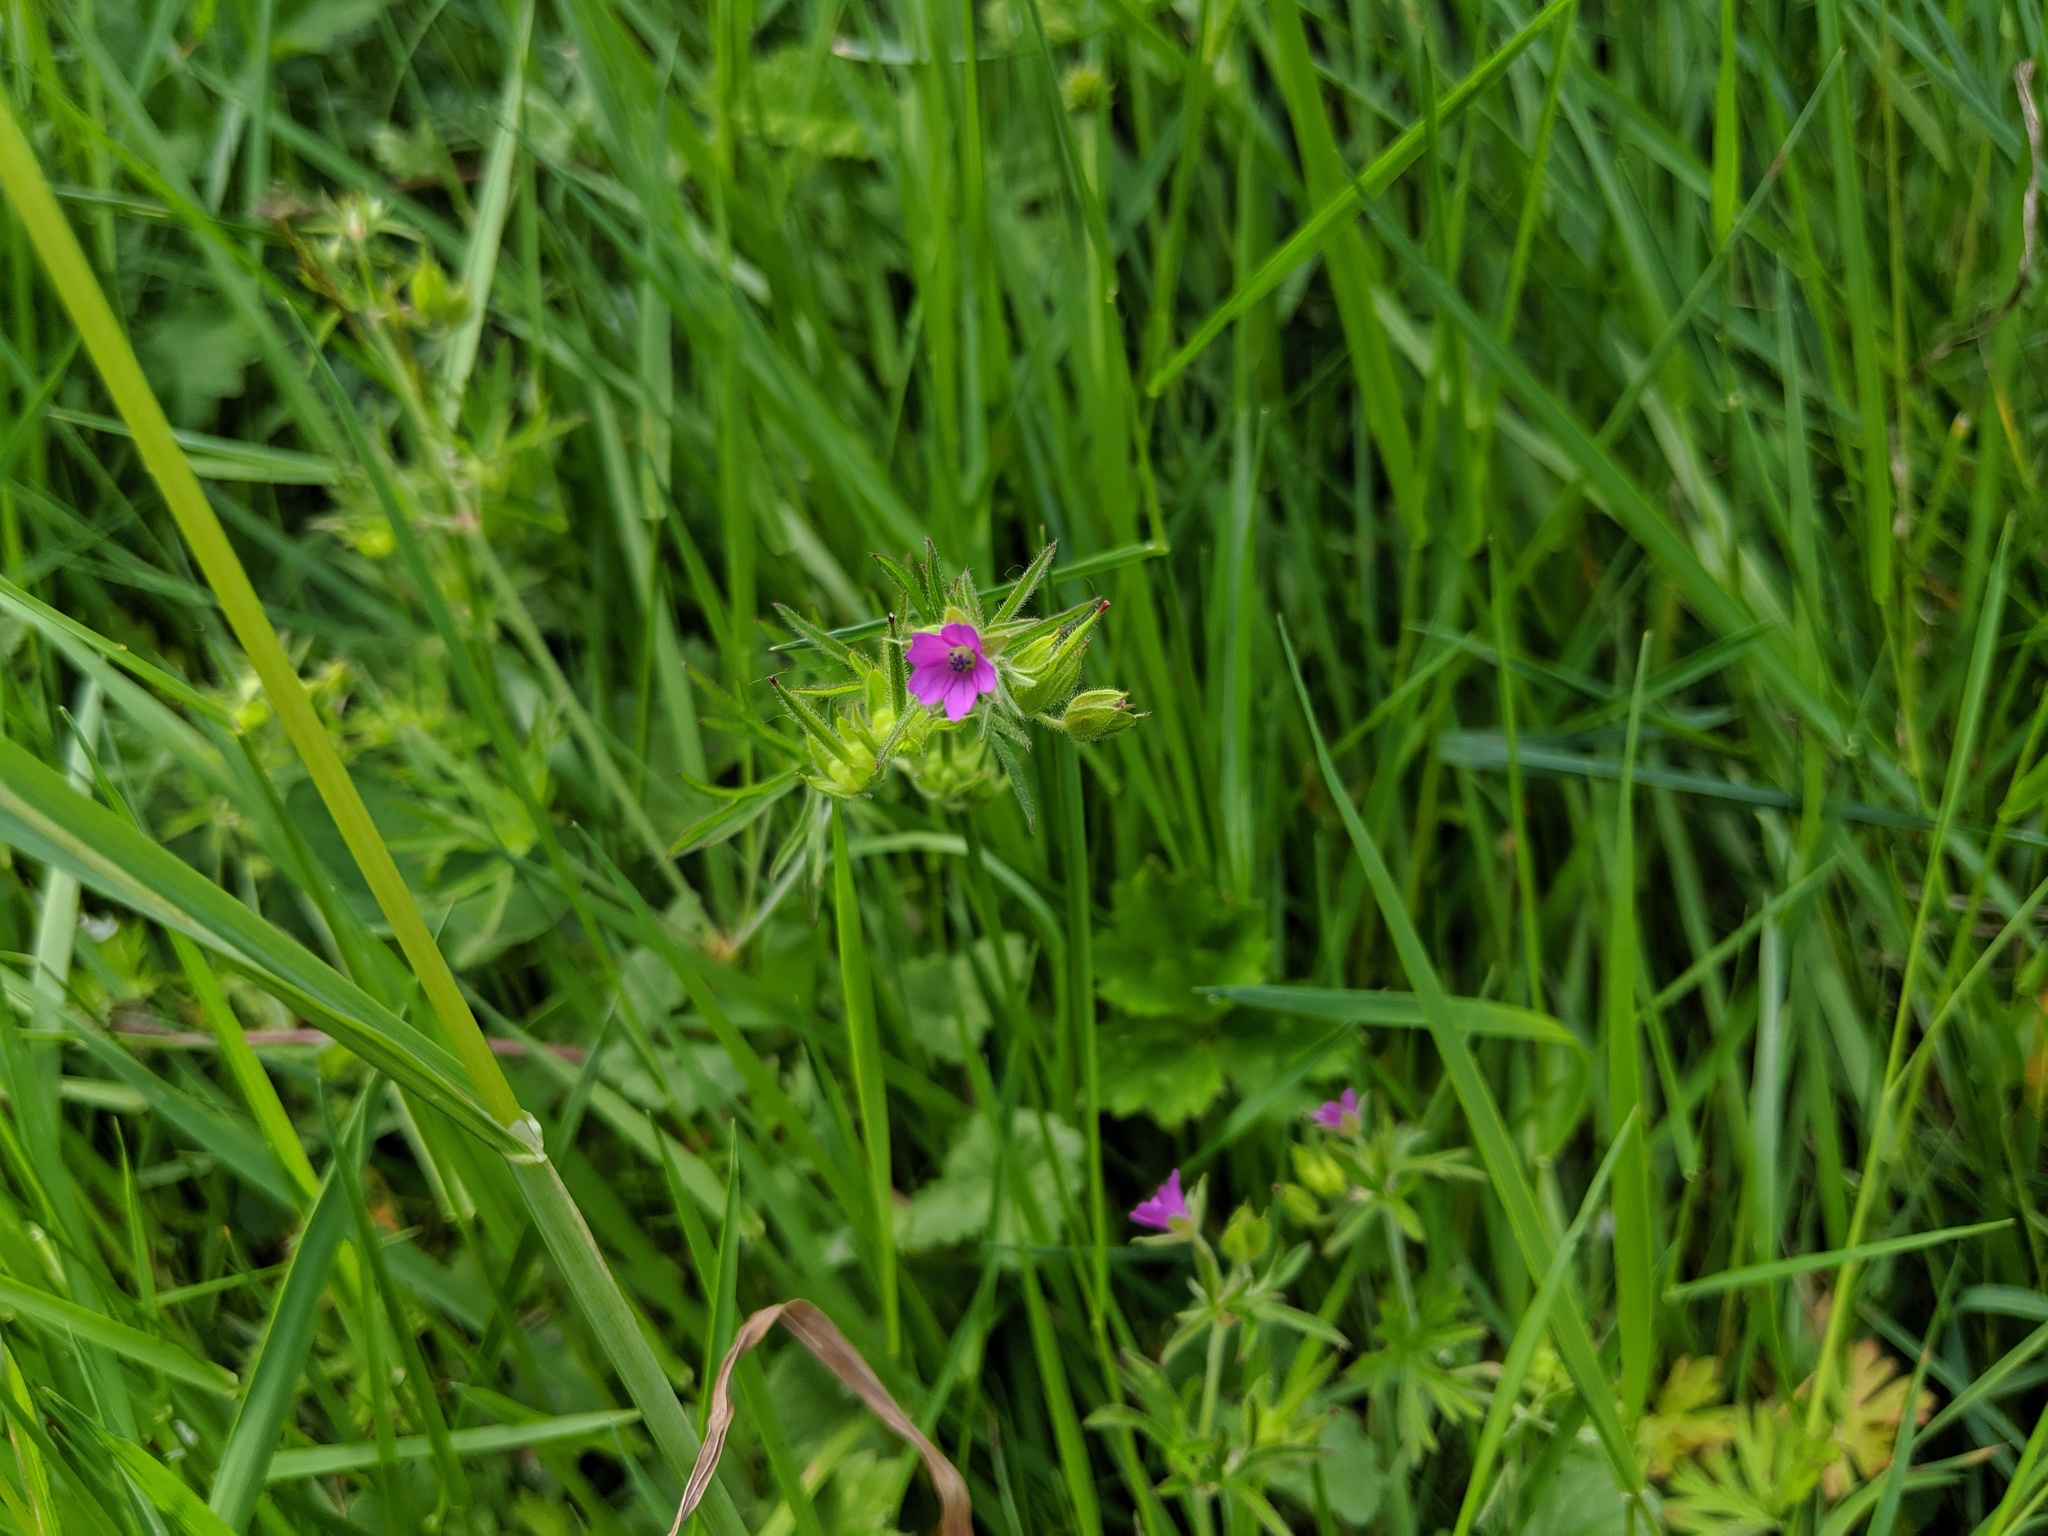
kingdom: Plantae
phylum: Tracheophyta
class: Magnoliopsida
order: Geraniales
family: Geraniaceae
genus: Geranium
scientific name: Geranium dissectum
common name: Cut-leaved crane's-bill
